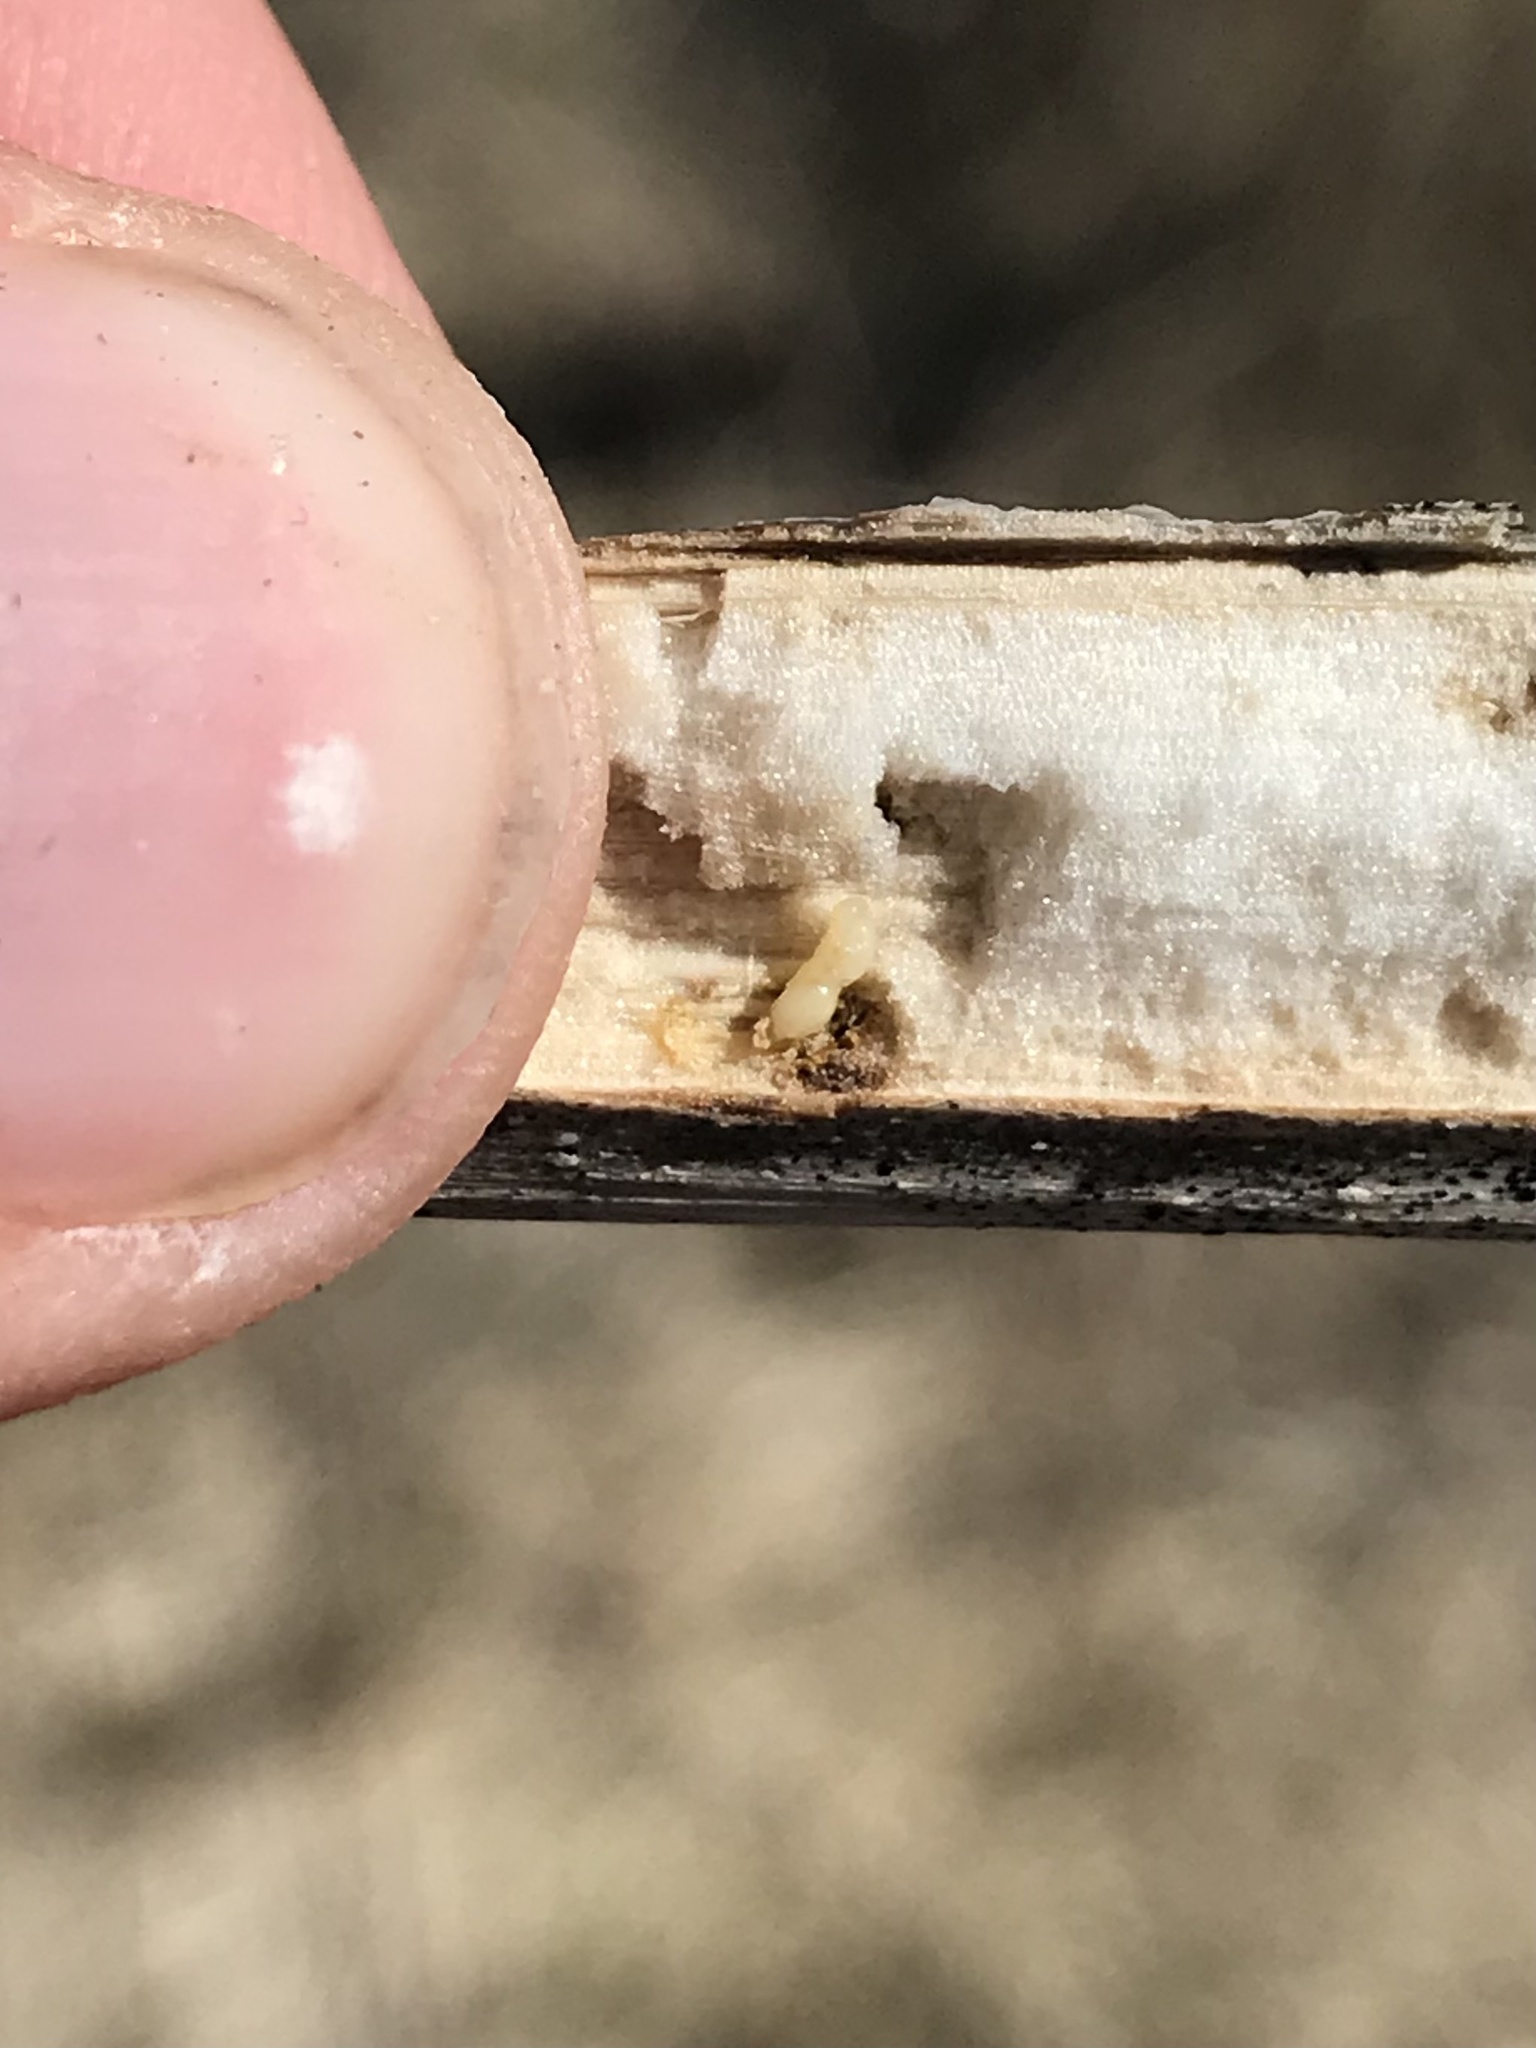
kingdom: Animalia
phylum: Arthropoda
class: Insecta
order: Hymenoptera
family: Cynipidae
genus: Antistrophus
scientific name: Antistrophus
